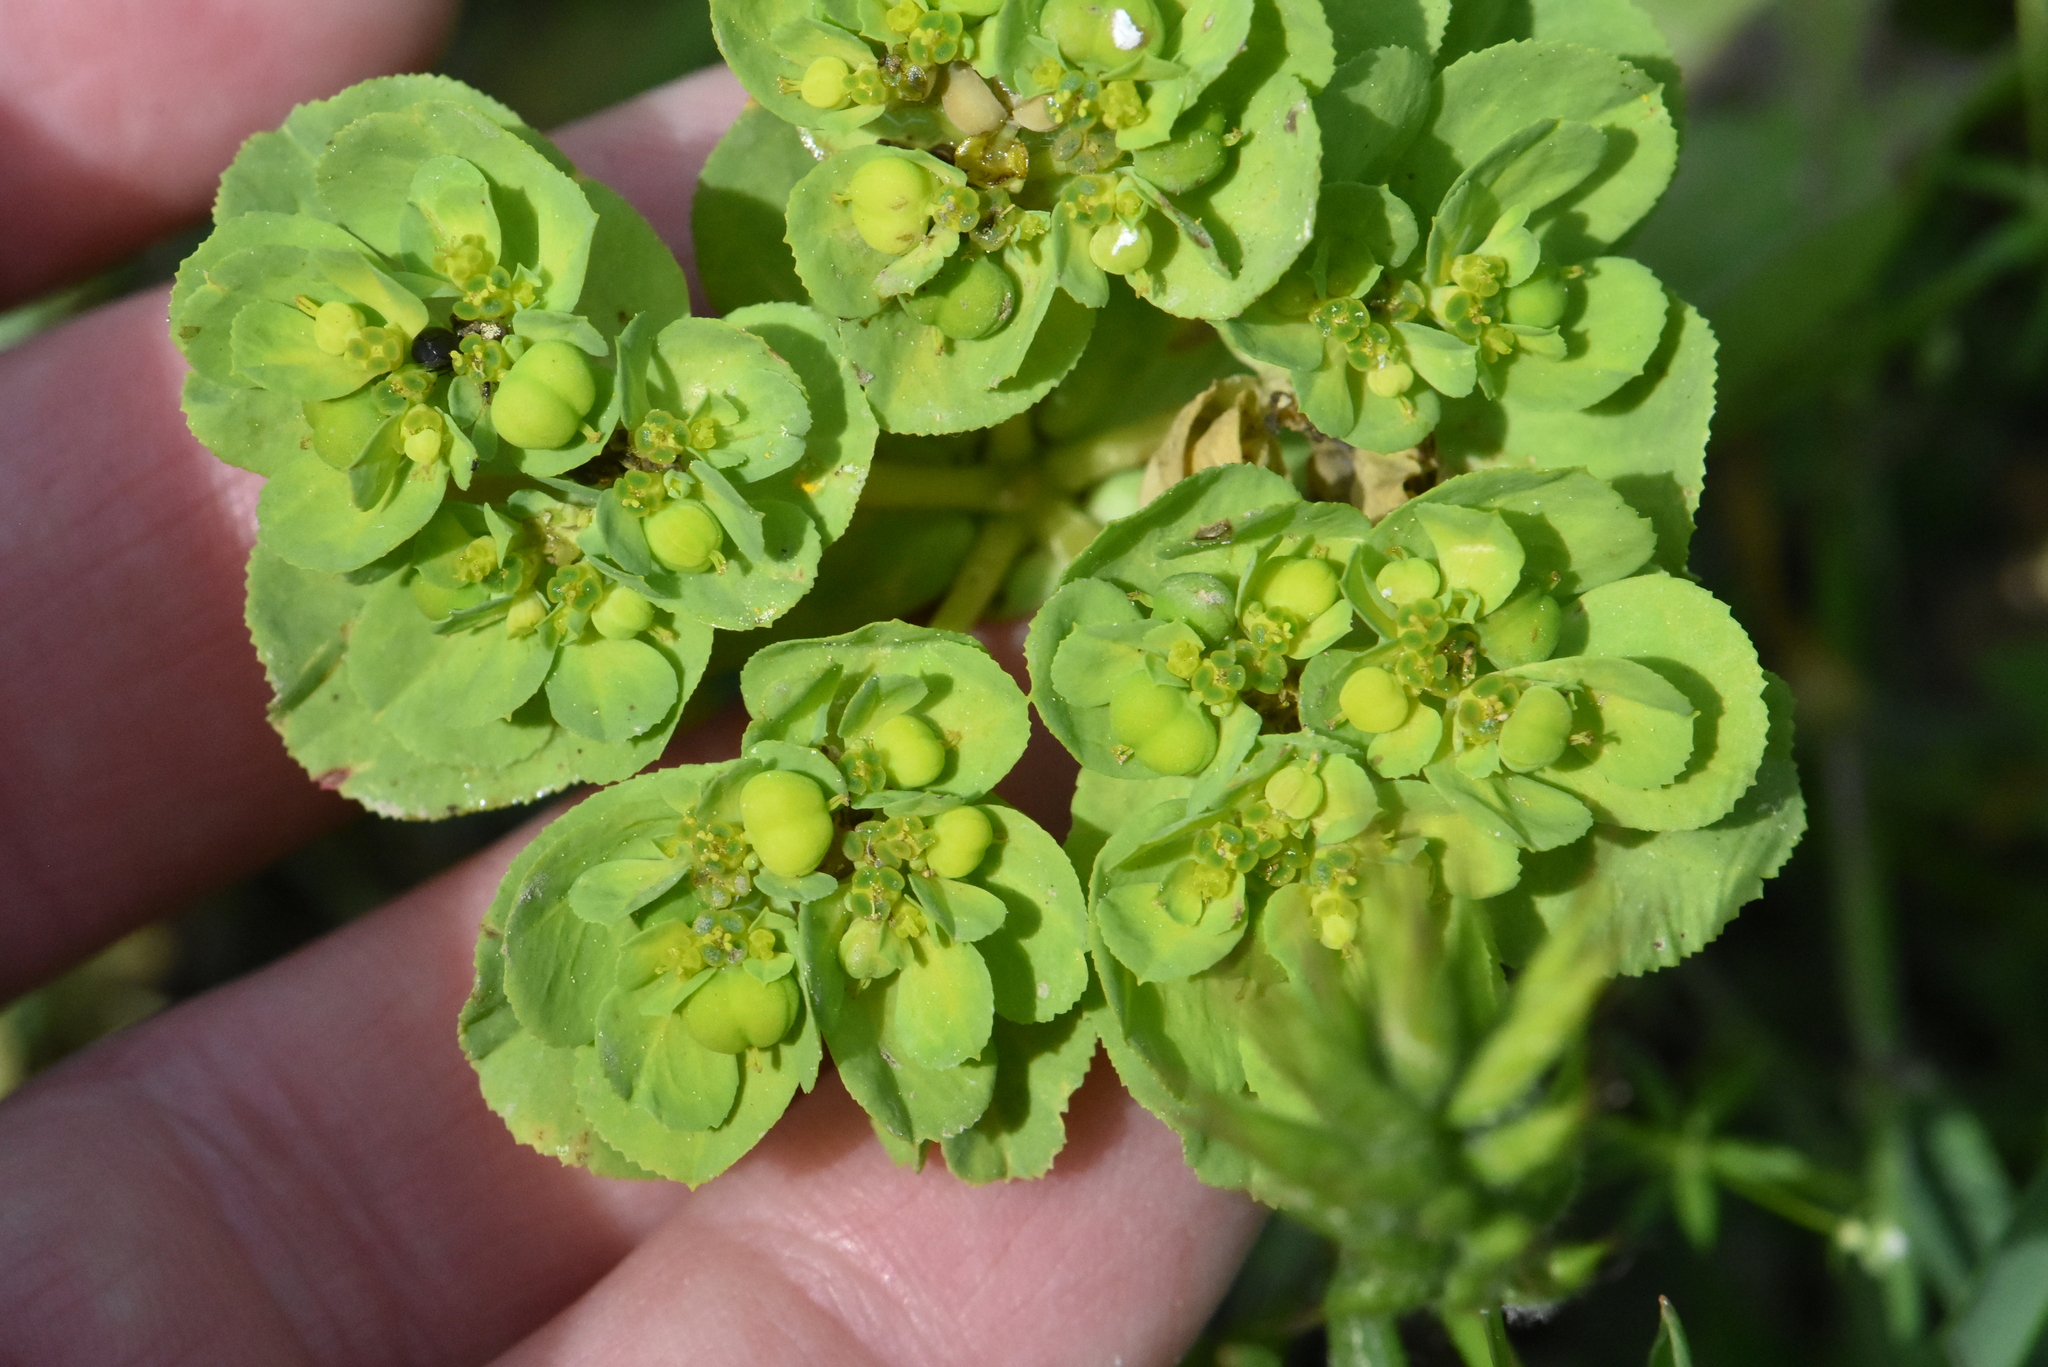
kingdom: Plantae
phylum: Tracheophyta
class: Magnoliopsida
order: Malpighiales
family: Euphorbiaceae
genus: Euphorbia
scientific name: Euphorbia helioscopia
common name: Sun spurge
